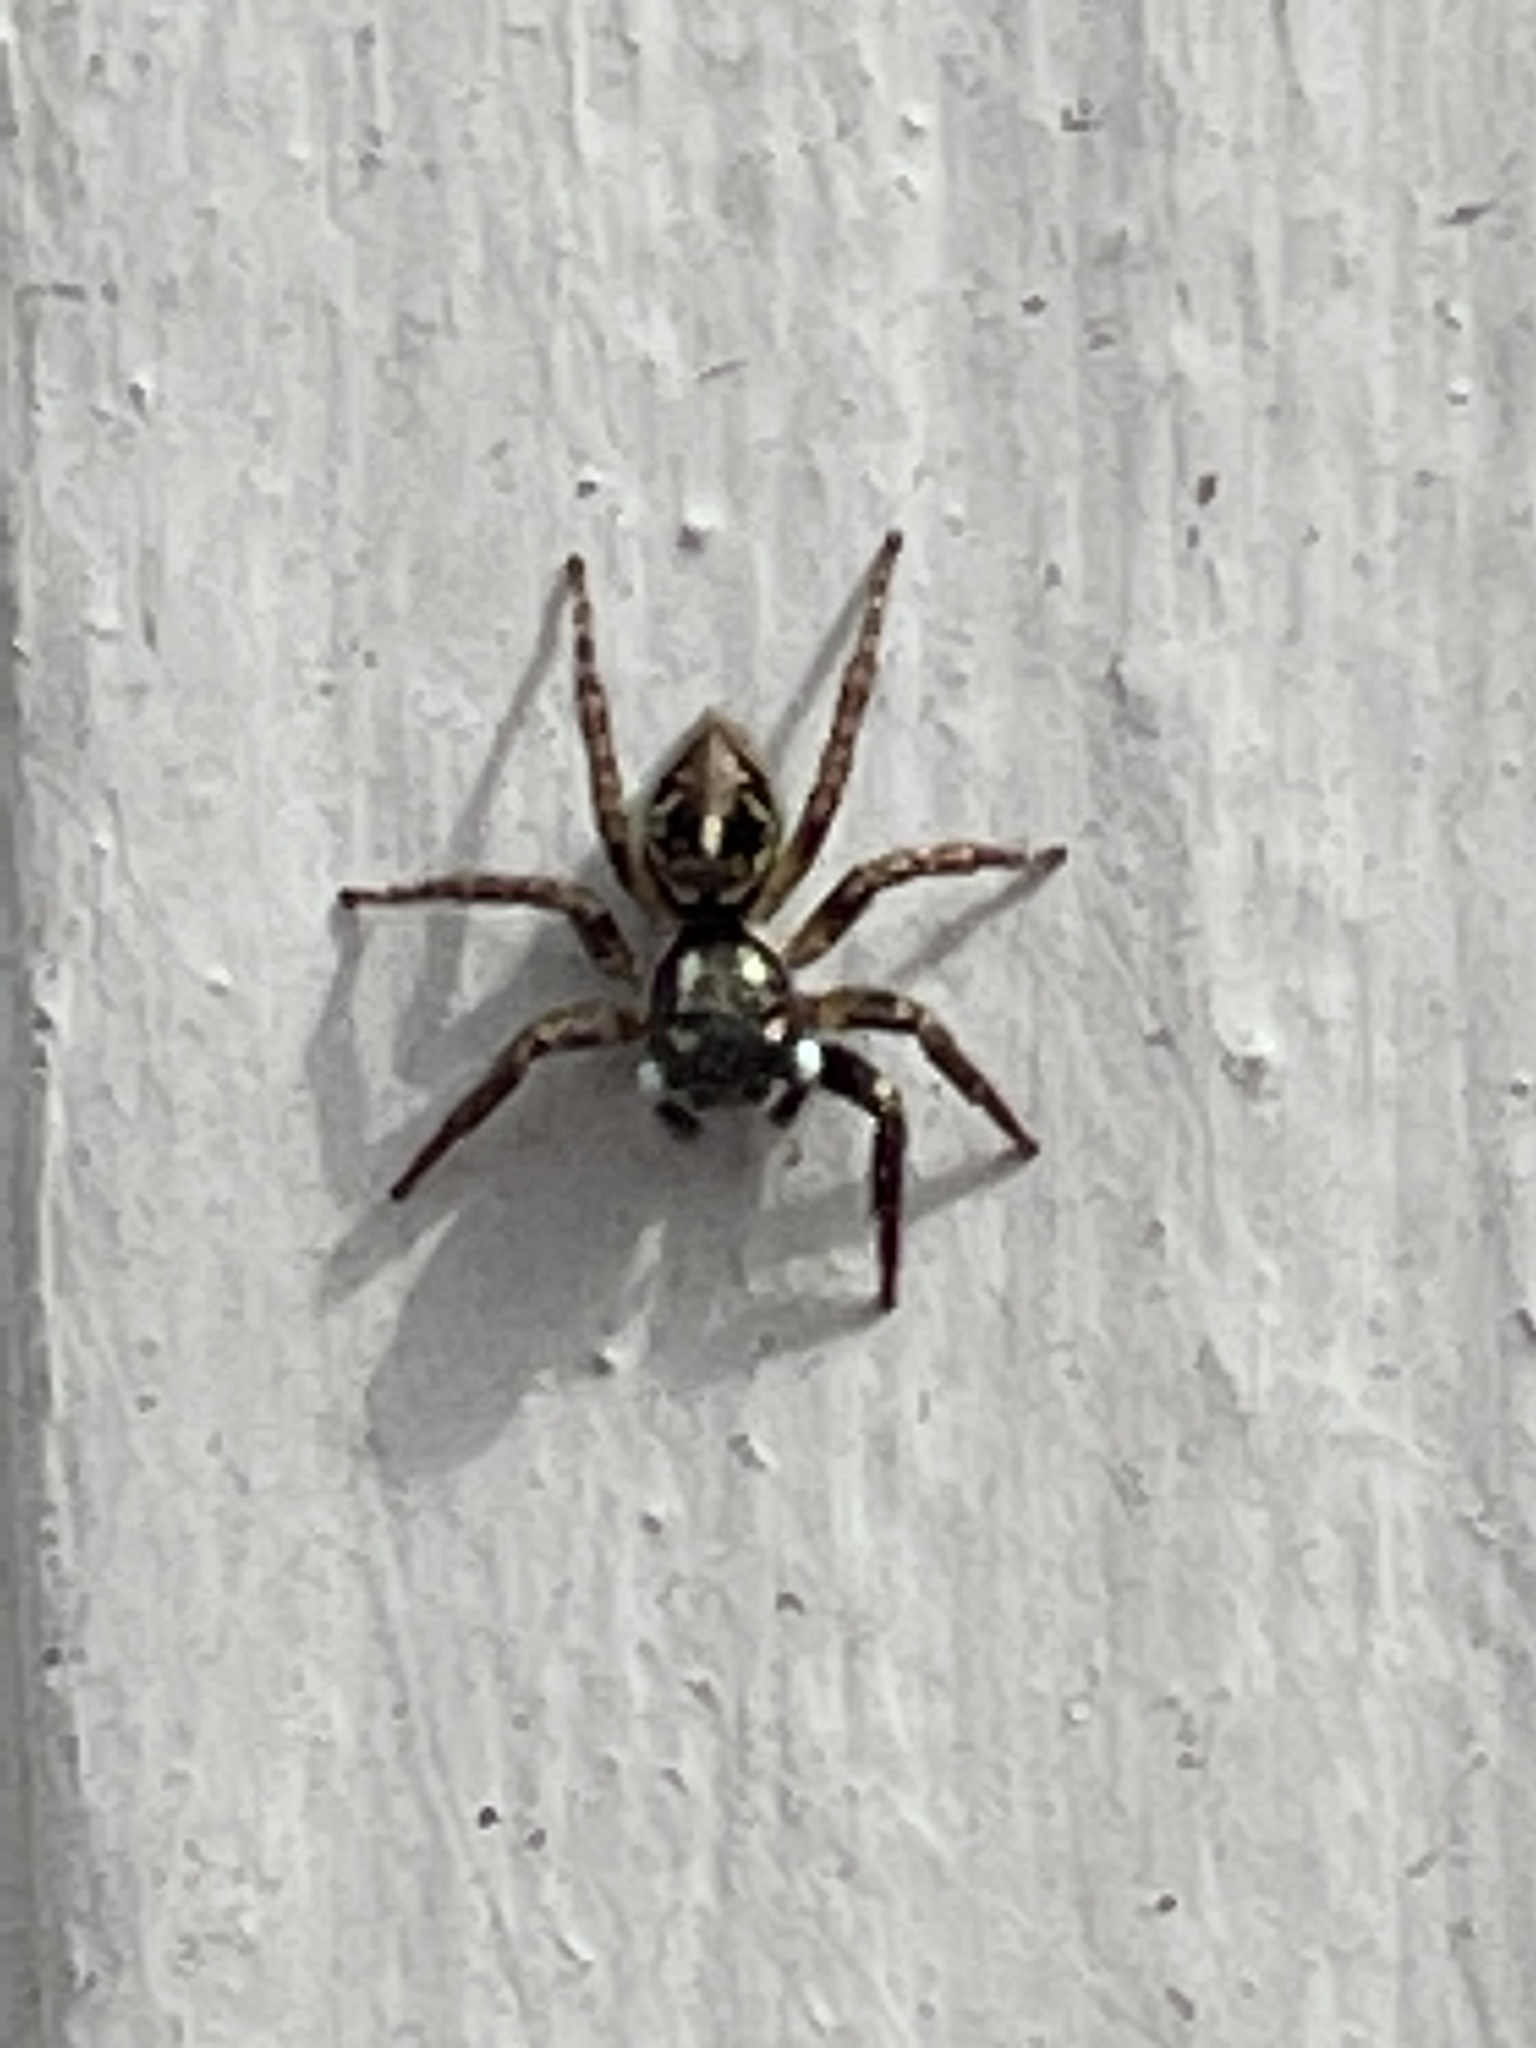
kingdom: Animalia
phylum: Arthropoda
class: Arachnida
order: Araneae
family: Salticidae
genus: Anasaitis
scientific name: Anasaitis canosa
